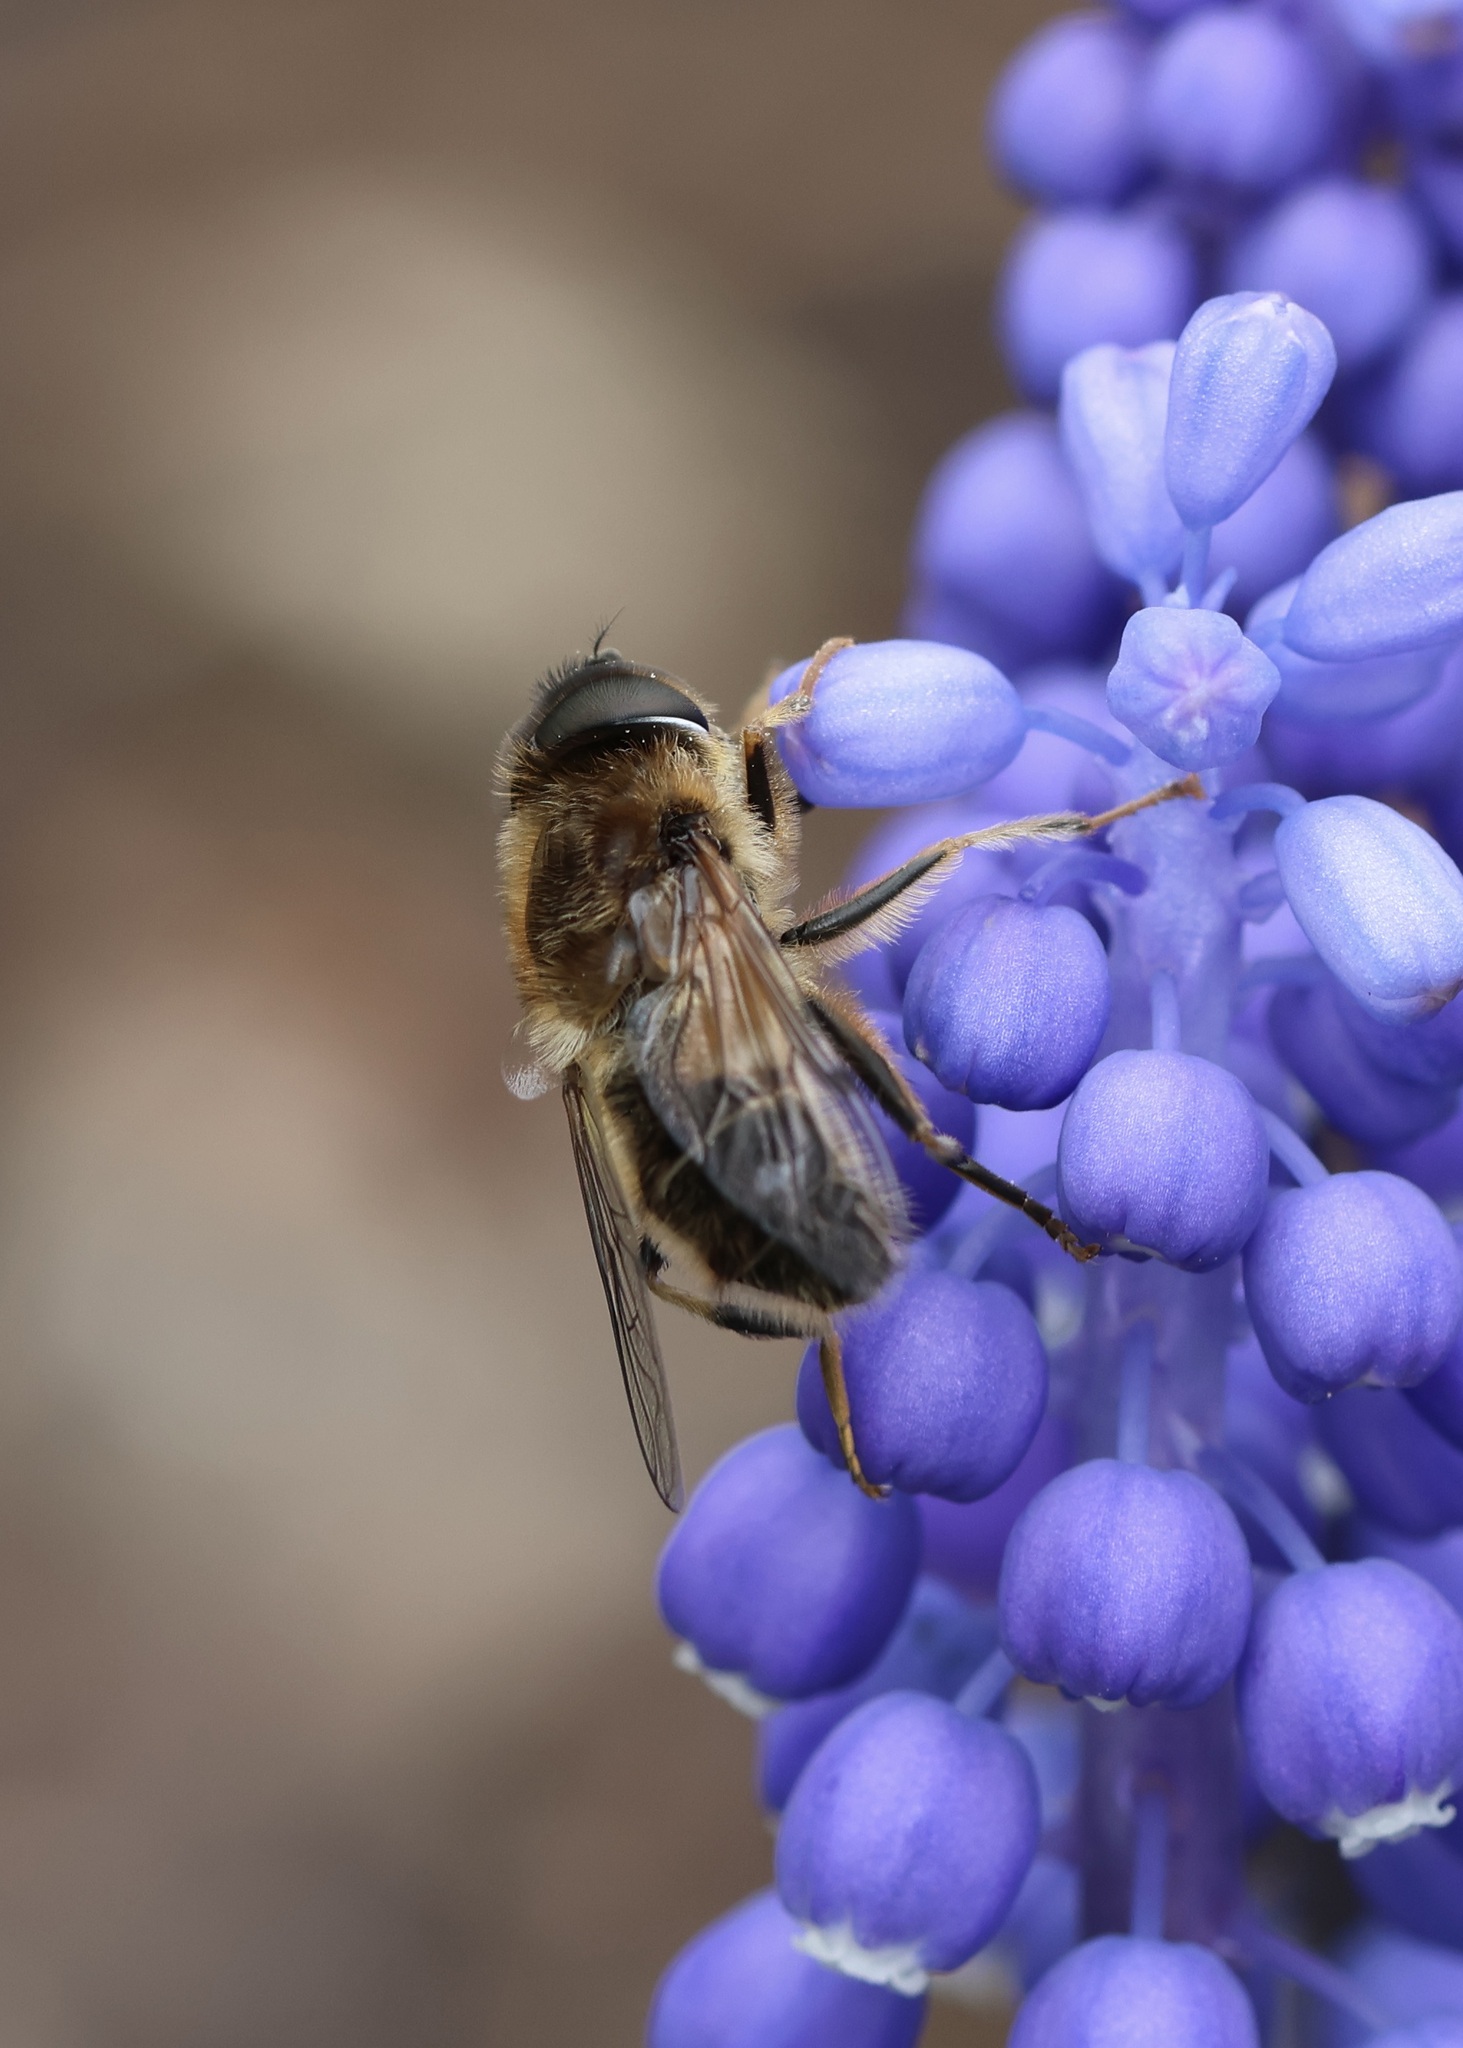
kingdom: Animalia
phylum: Arthropoda
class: Insecta
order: Diptera
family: Syrphidae
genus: Eristalis
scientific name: Eristalis pertinax
